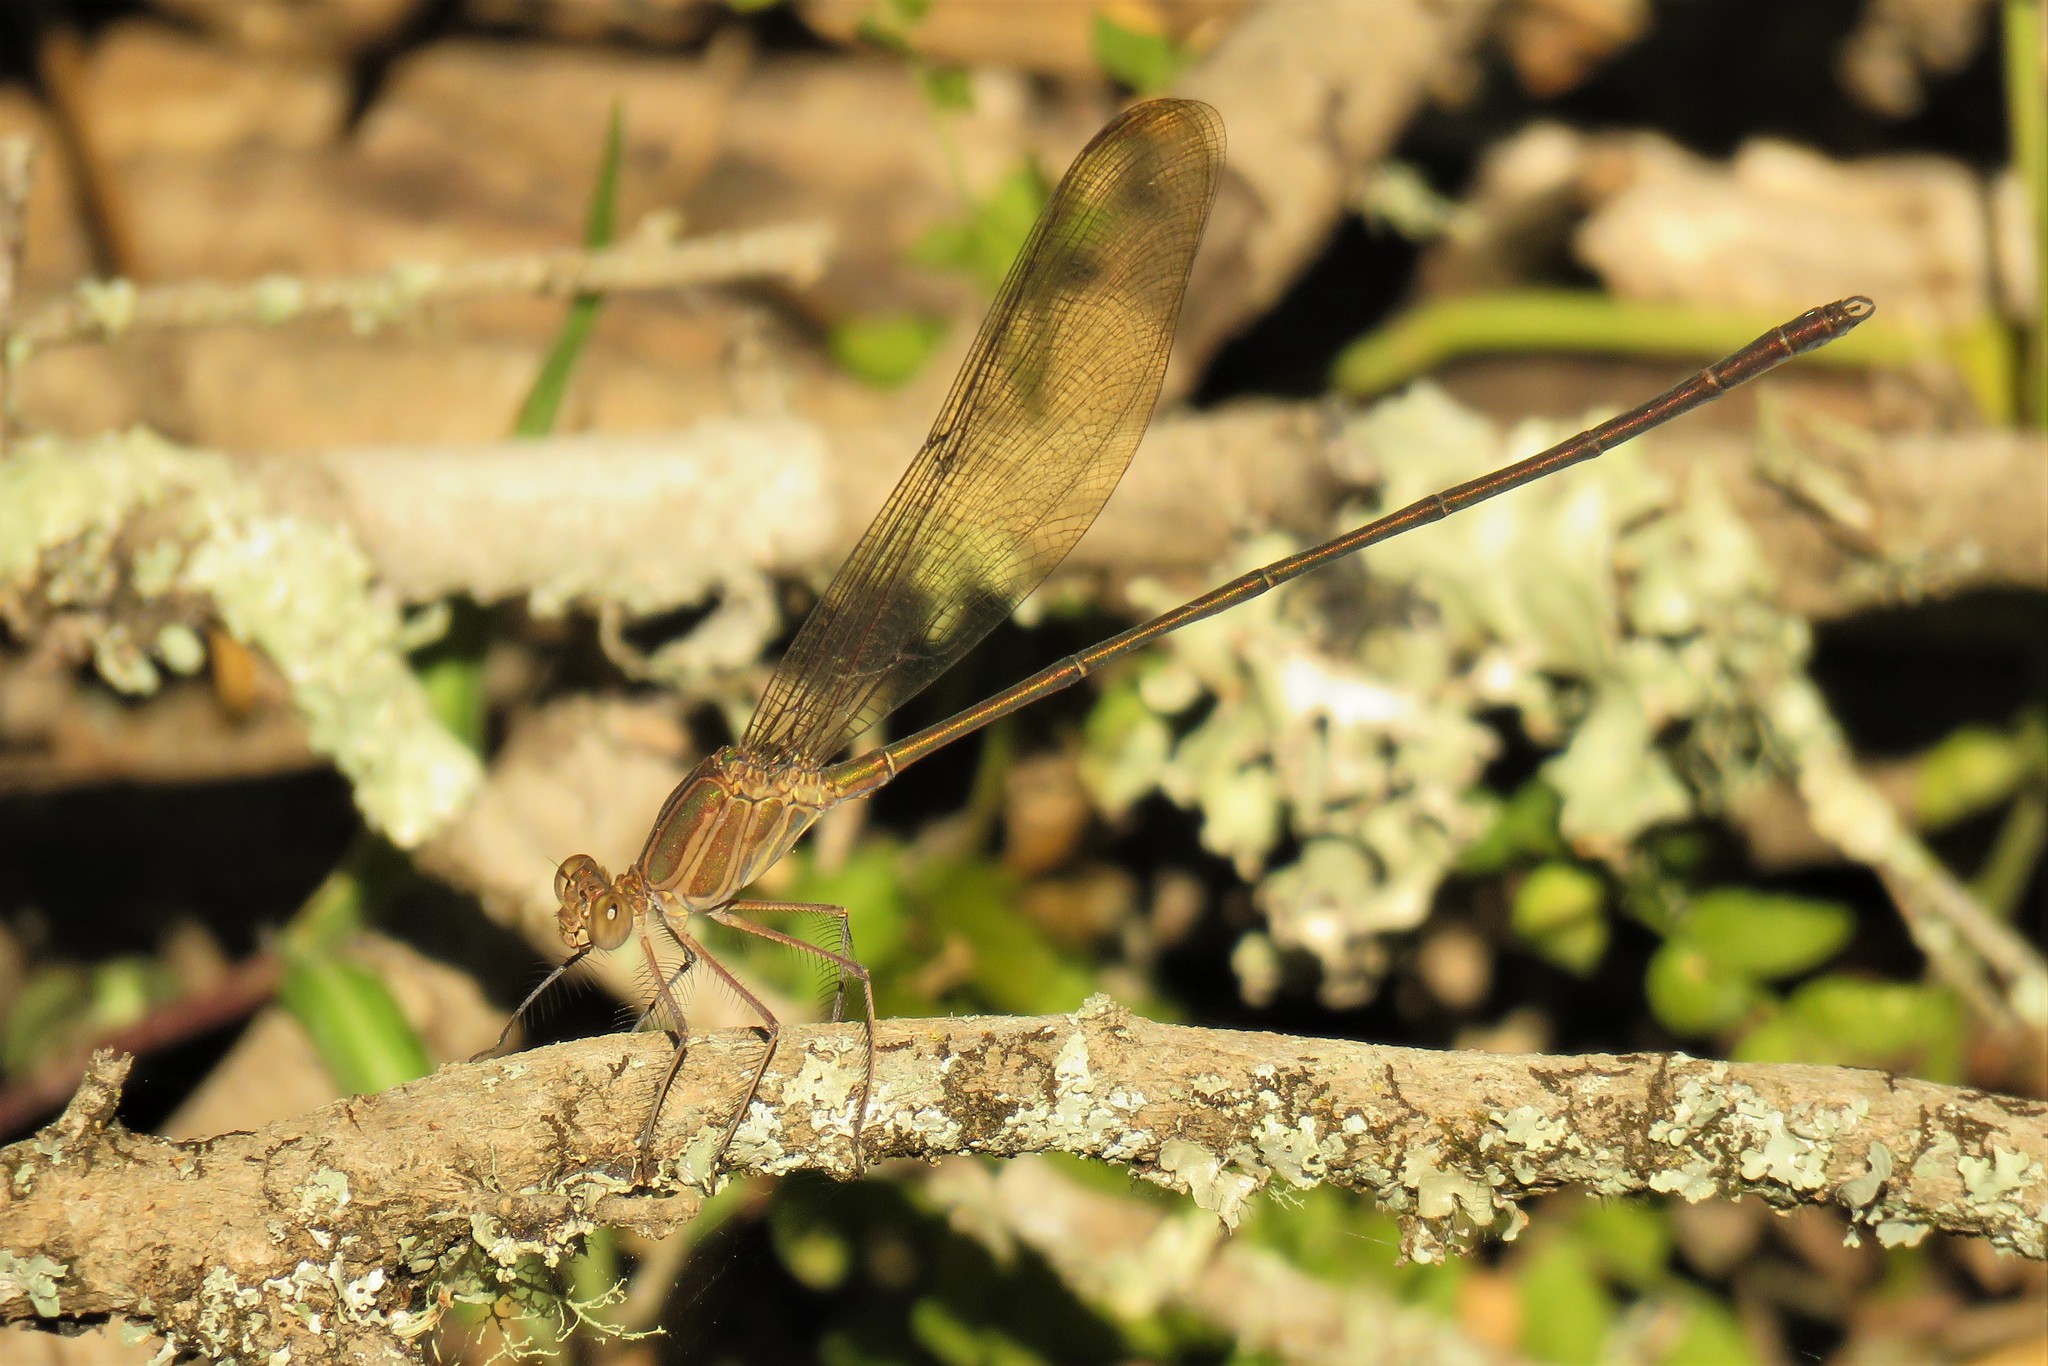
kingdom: Animalia
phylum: Arthropoda
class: Insecta
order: Odonata
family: Calopterygidae
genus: Phaon
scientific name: Phaon iridipennis
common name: Glistening demoiselle
